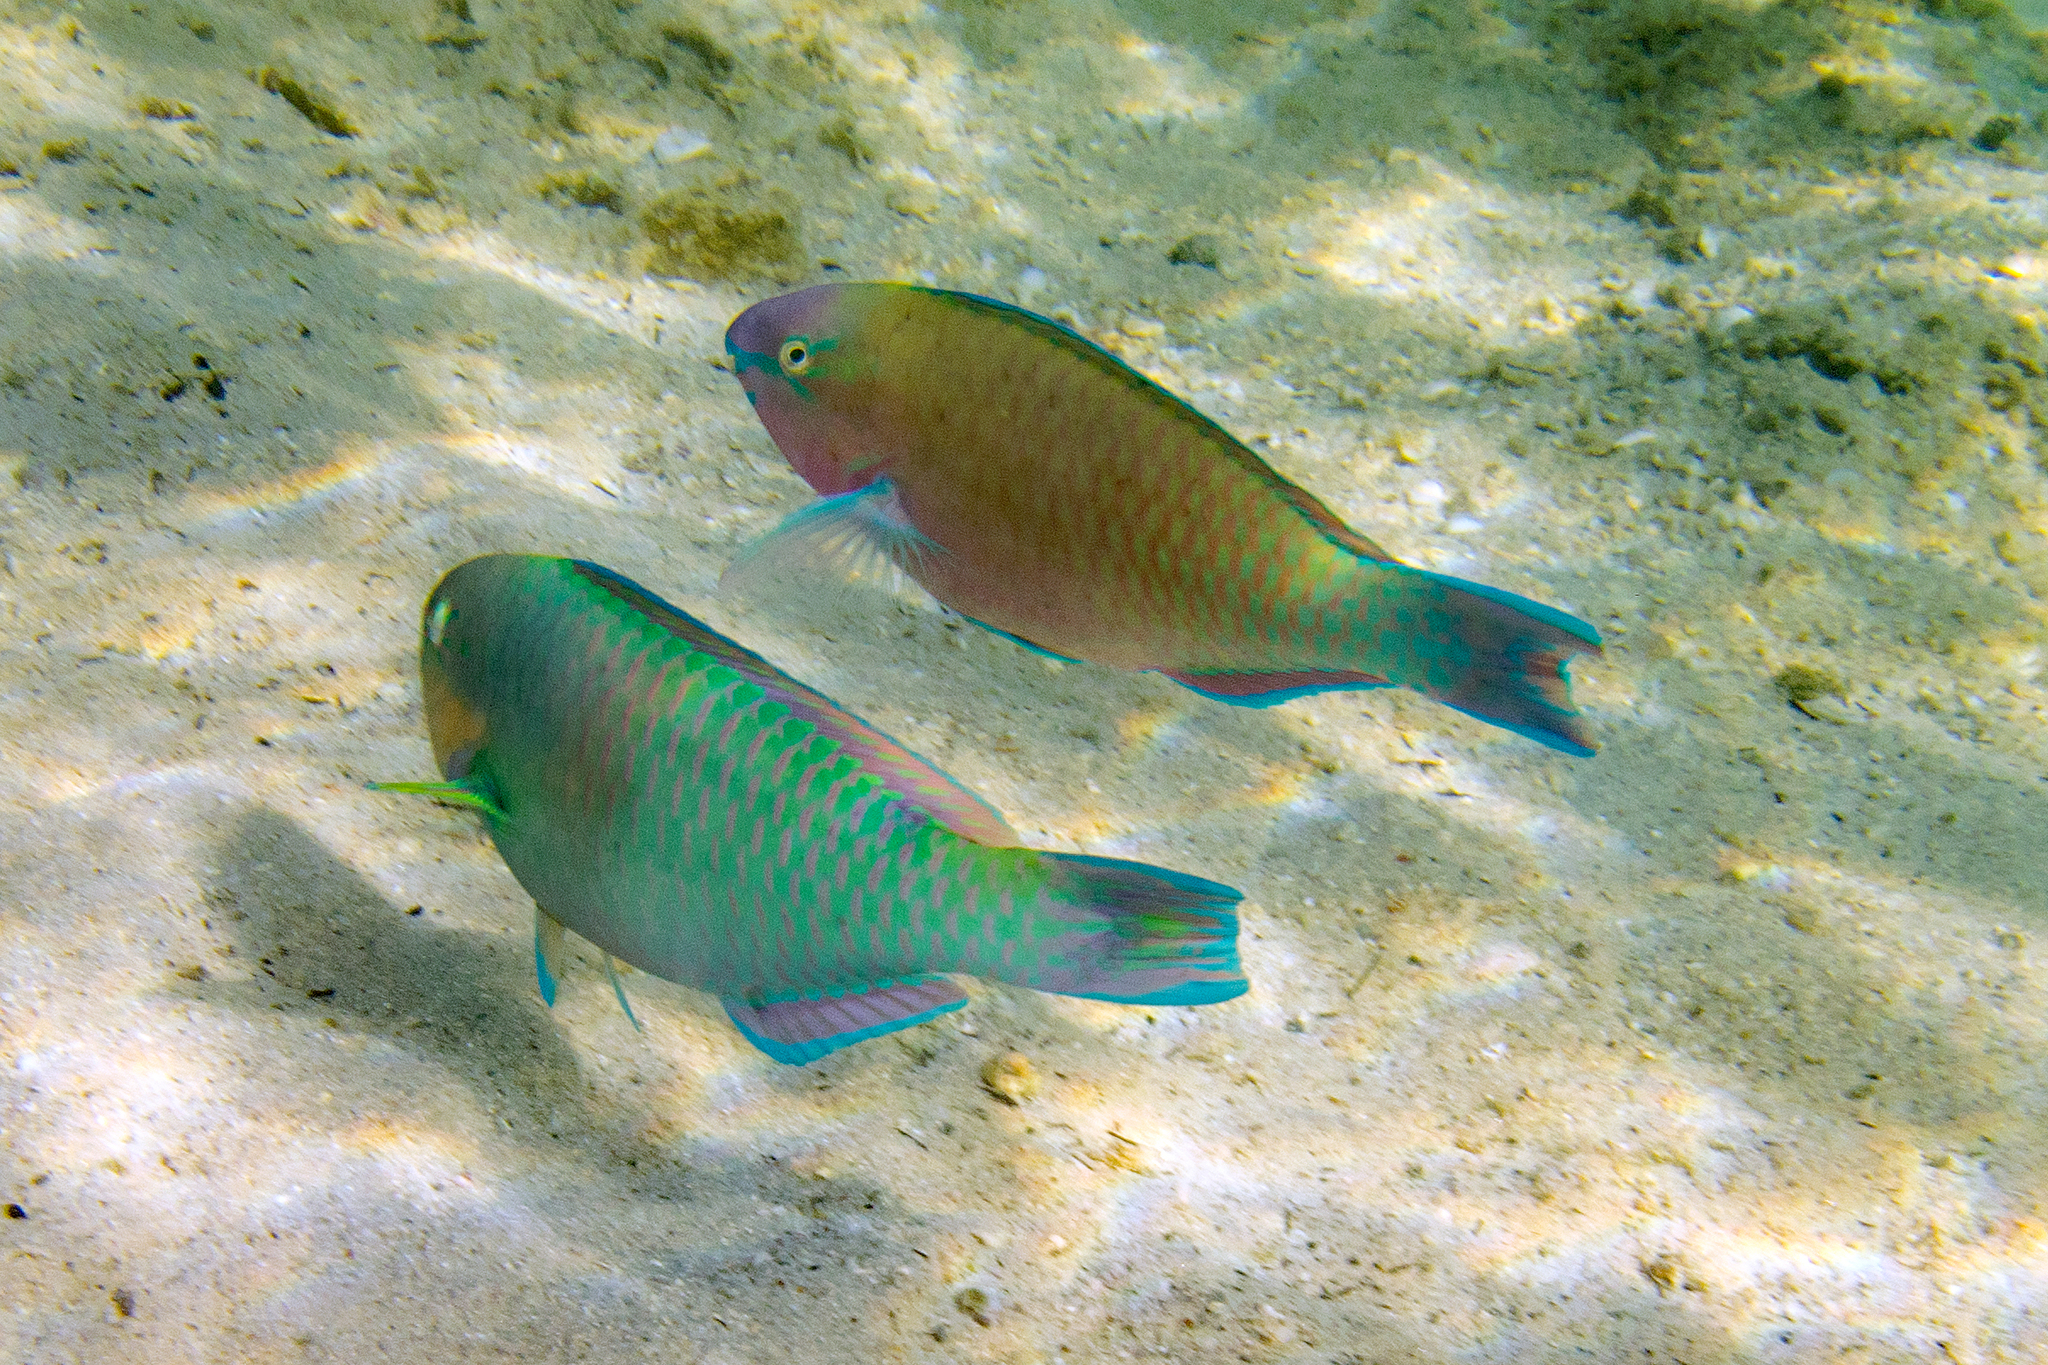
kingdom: Animalia
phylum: Chordata
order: Perciformes
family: Scaridae
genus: Scarus
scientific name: Scarus psittacus
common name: Palenose parrotfish
